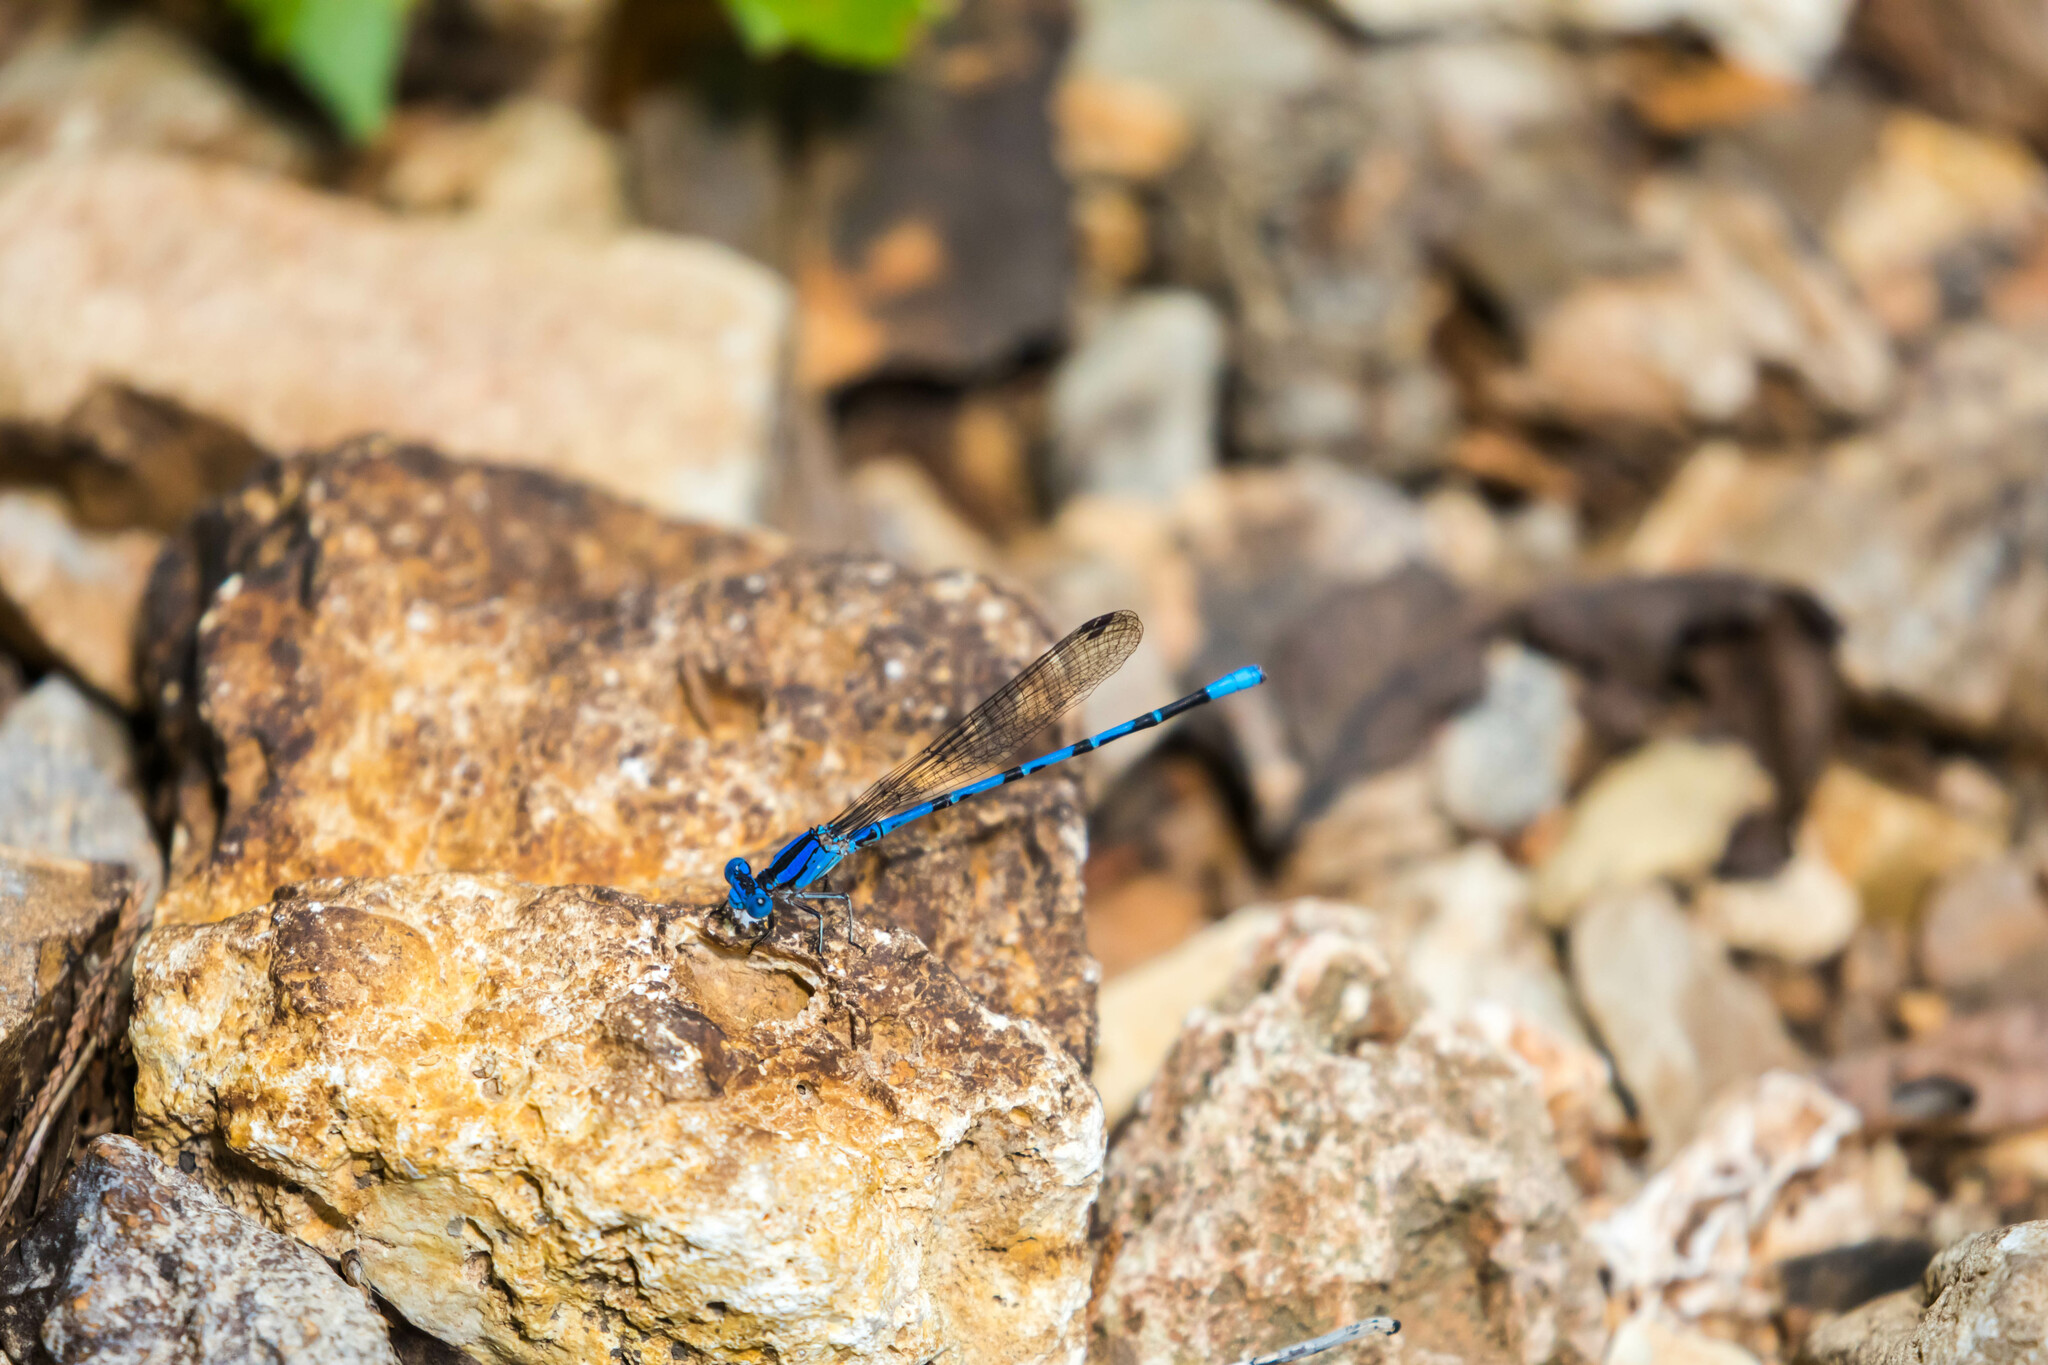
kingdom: Animalia
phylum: Arthropoda
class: Insecta
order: Odonata
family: Coenagrionidae
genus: Argia
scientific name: Argia funebris
